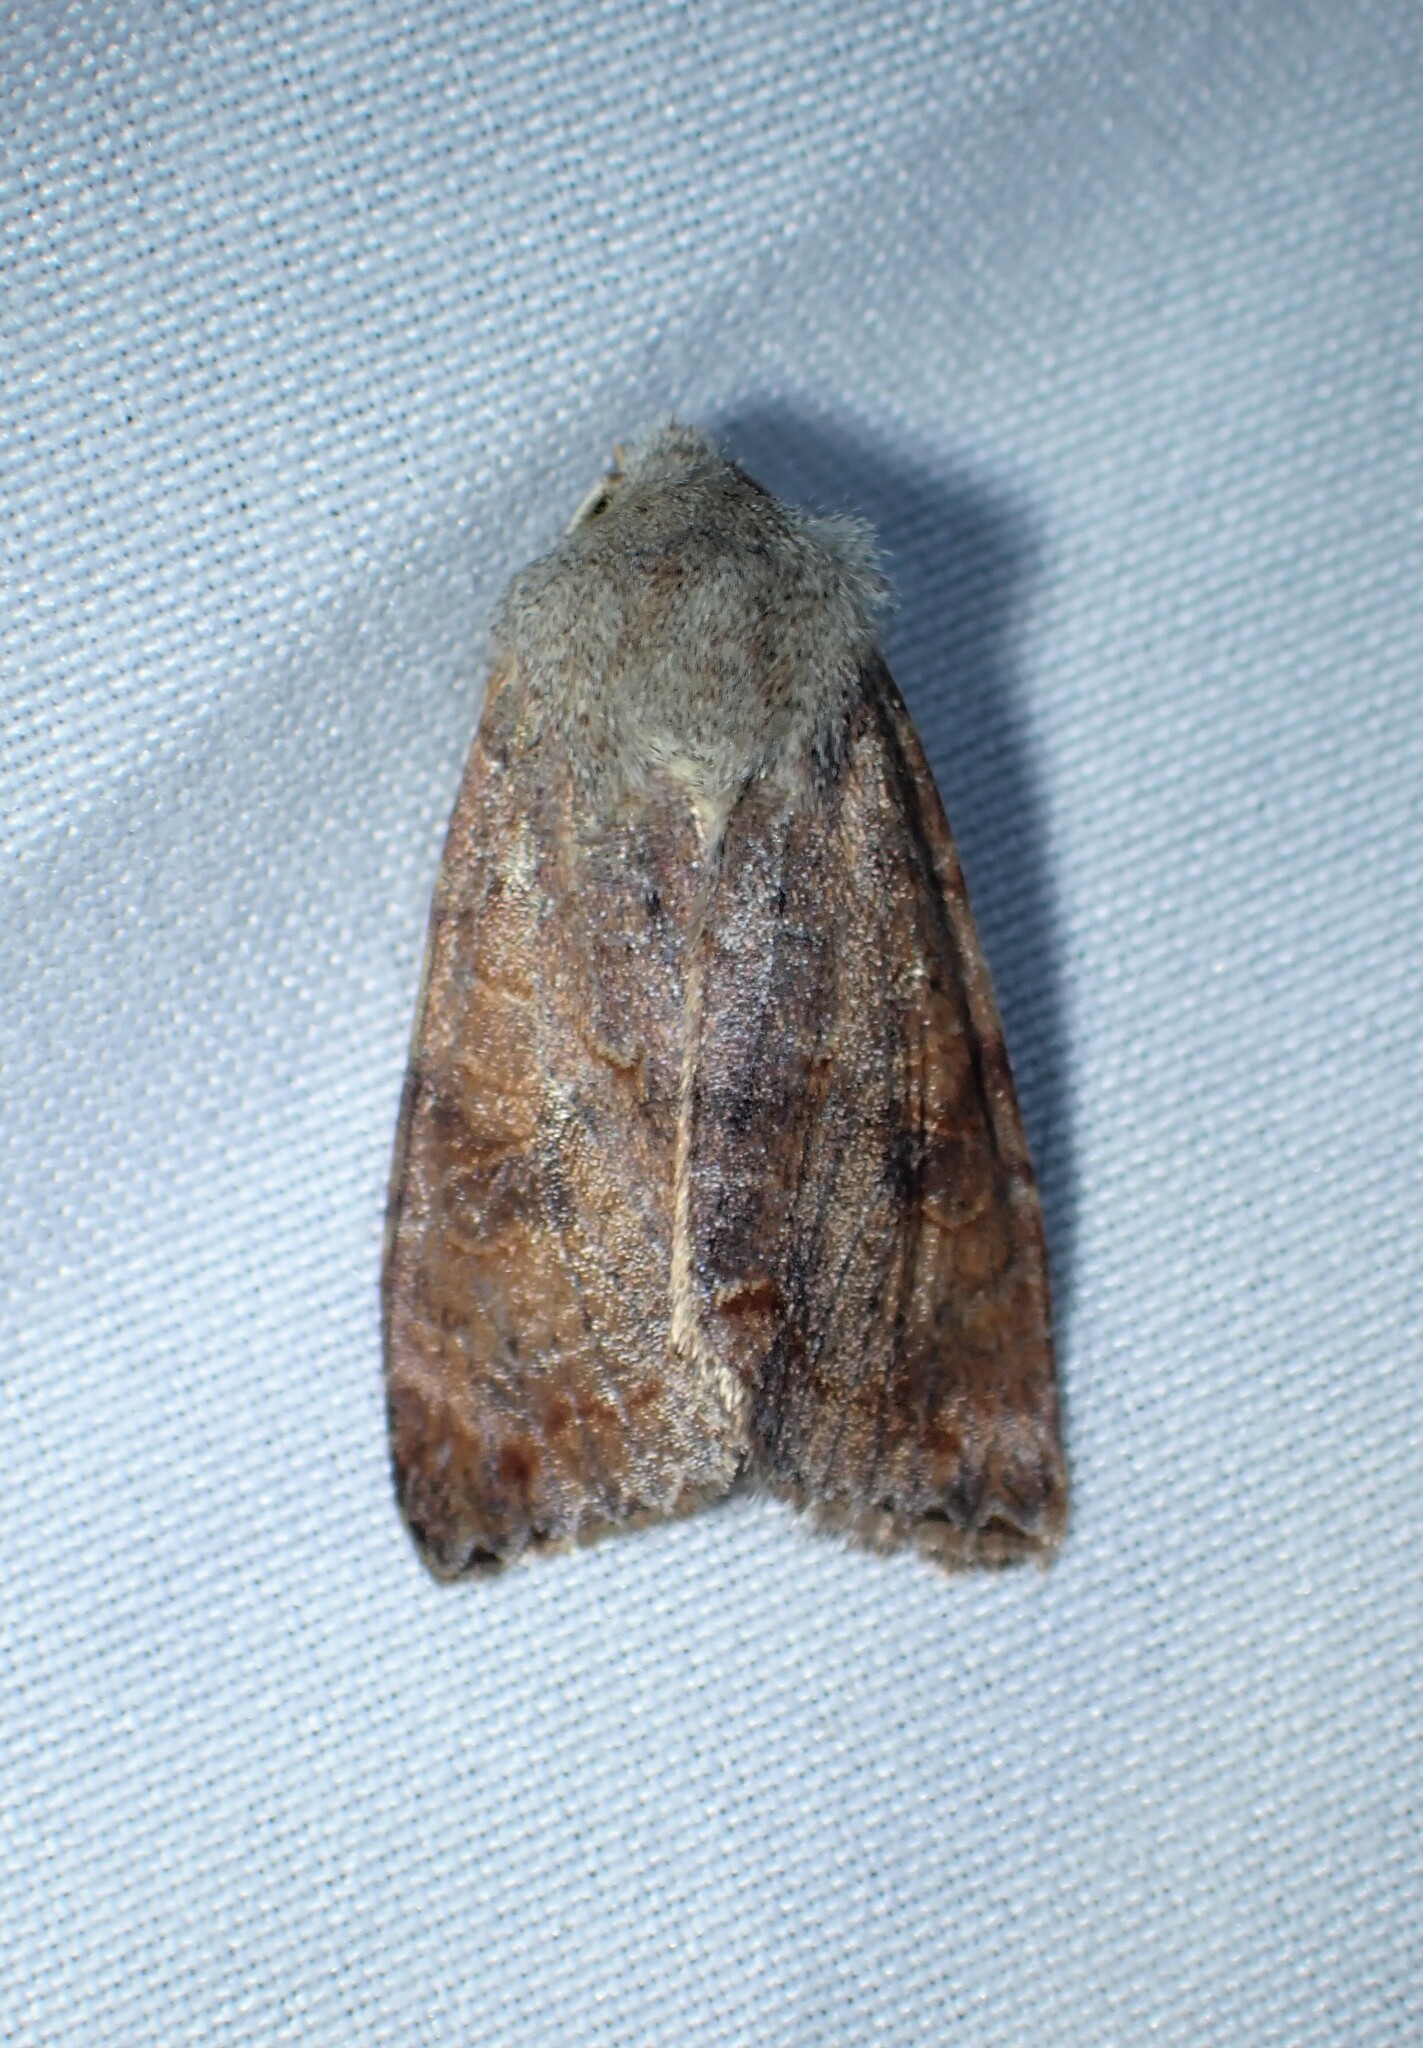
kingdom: Animalia
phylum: Arthropoda
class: Insecta
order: Lepidoptera
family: Noctuidae
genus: Orthosia
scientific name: Orthosia revicta
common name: Rusty whitesided caterpillar
